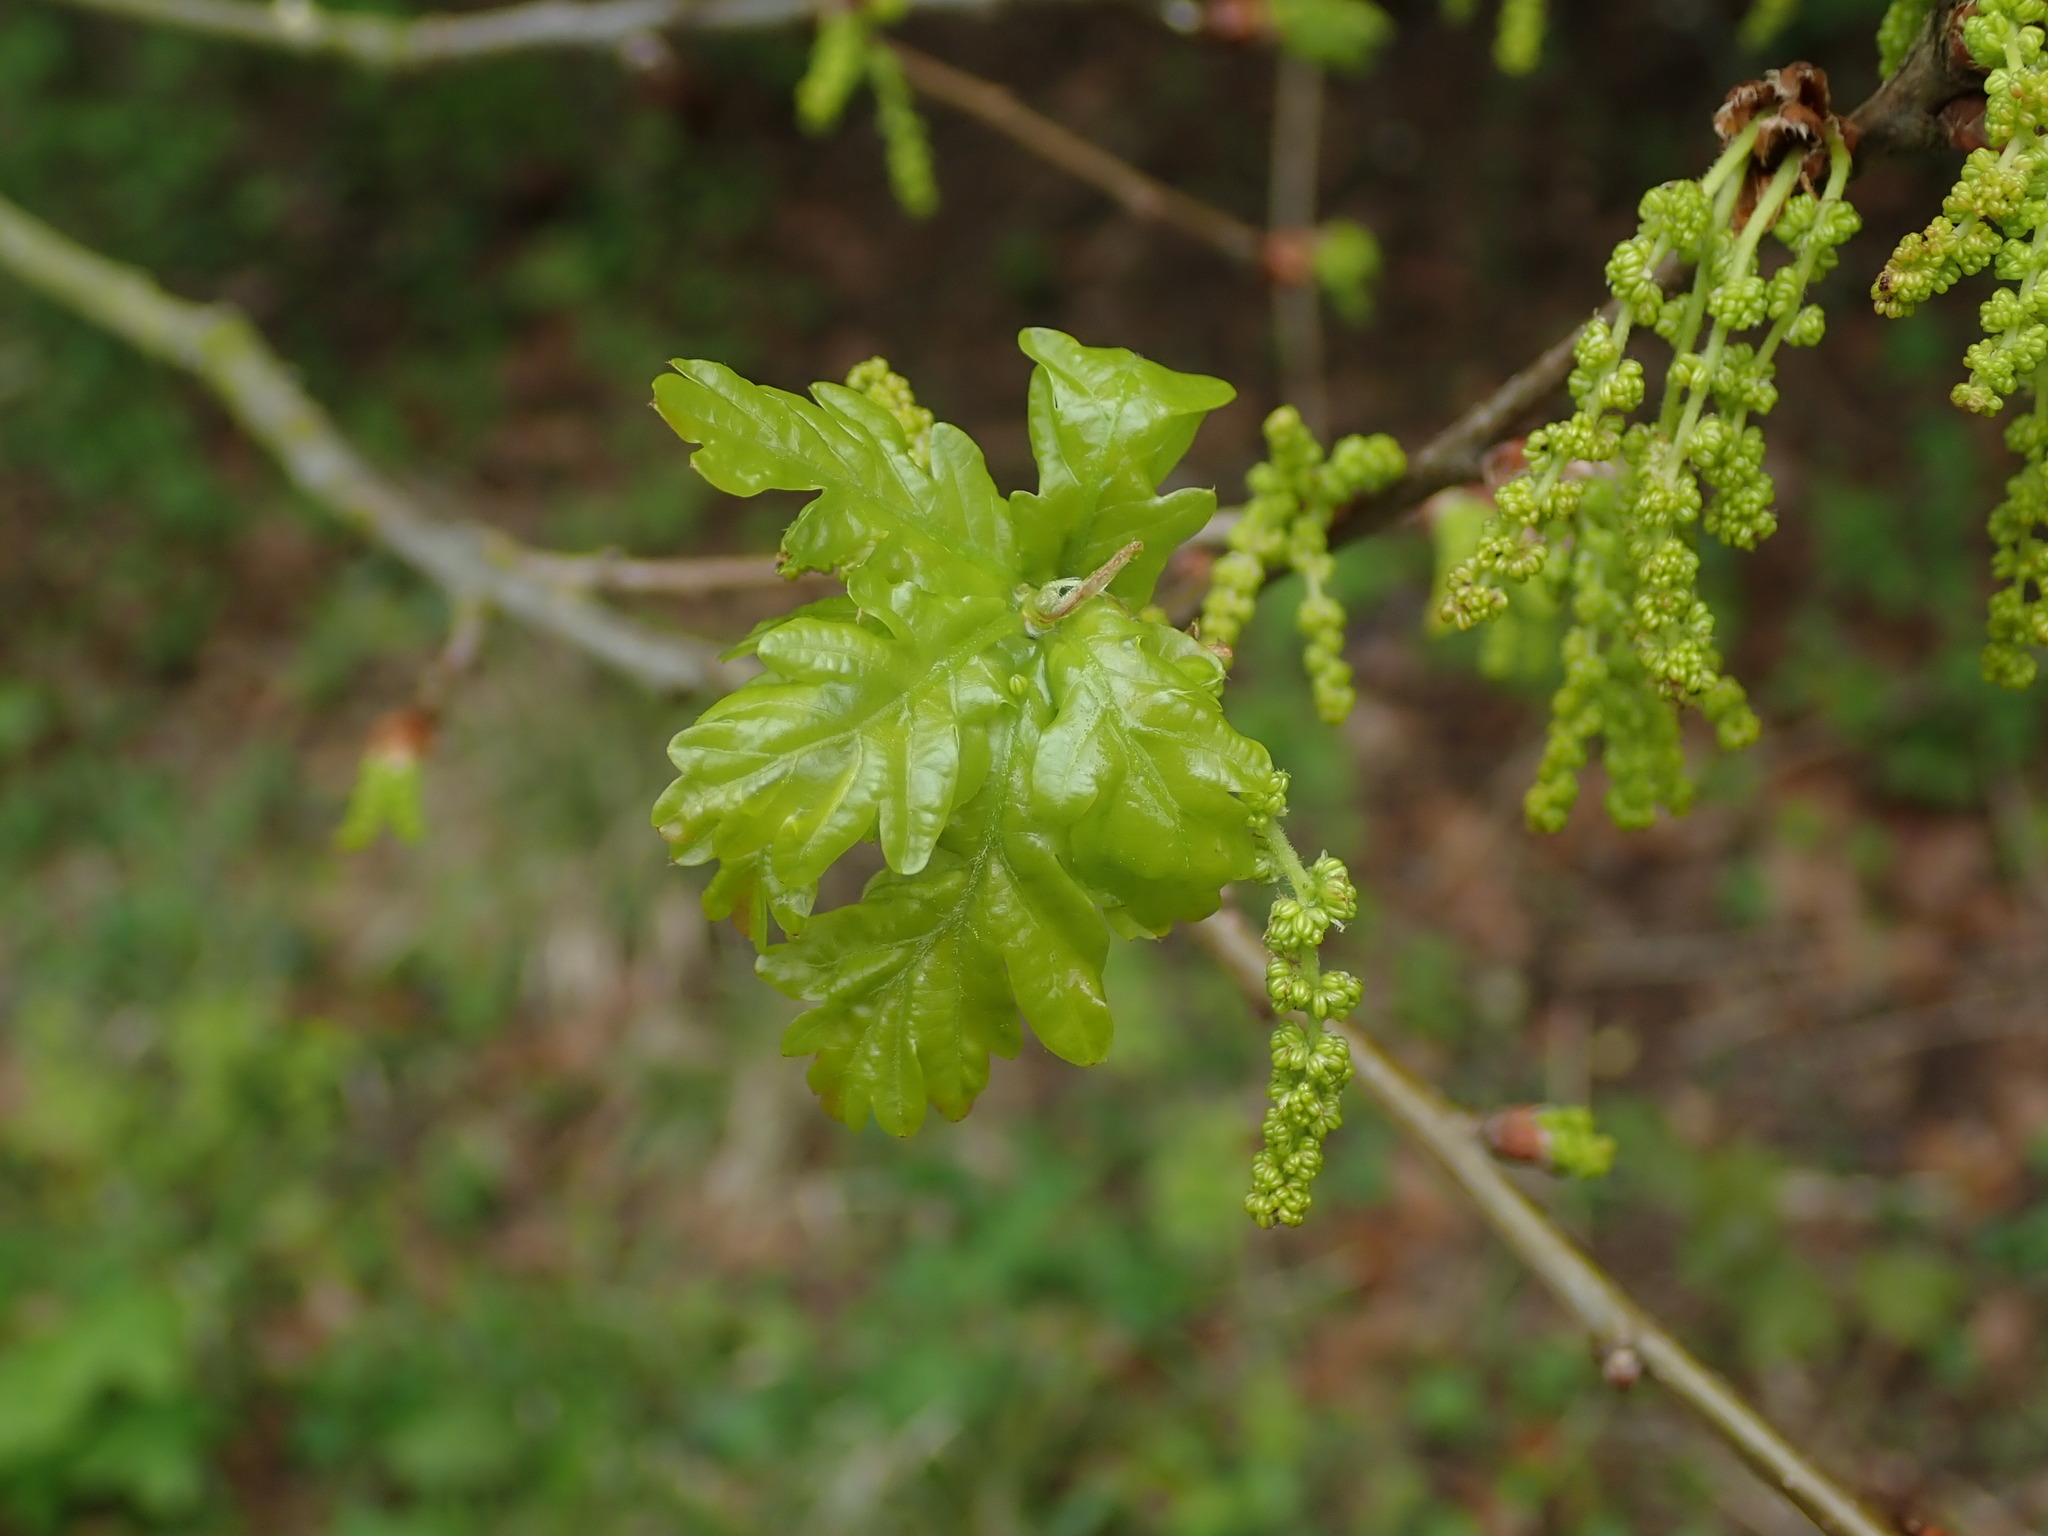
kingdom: Plantae
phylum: Tracheophyta
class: Magnoliopsida
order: Fagales
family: Fagaceae
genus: Quercus
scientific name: Quercus robur
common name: Pedunculate oak
